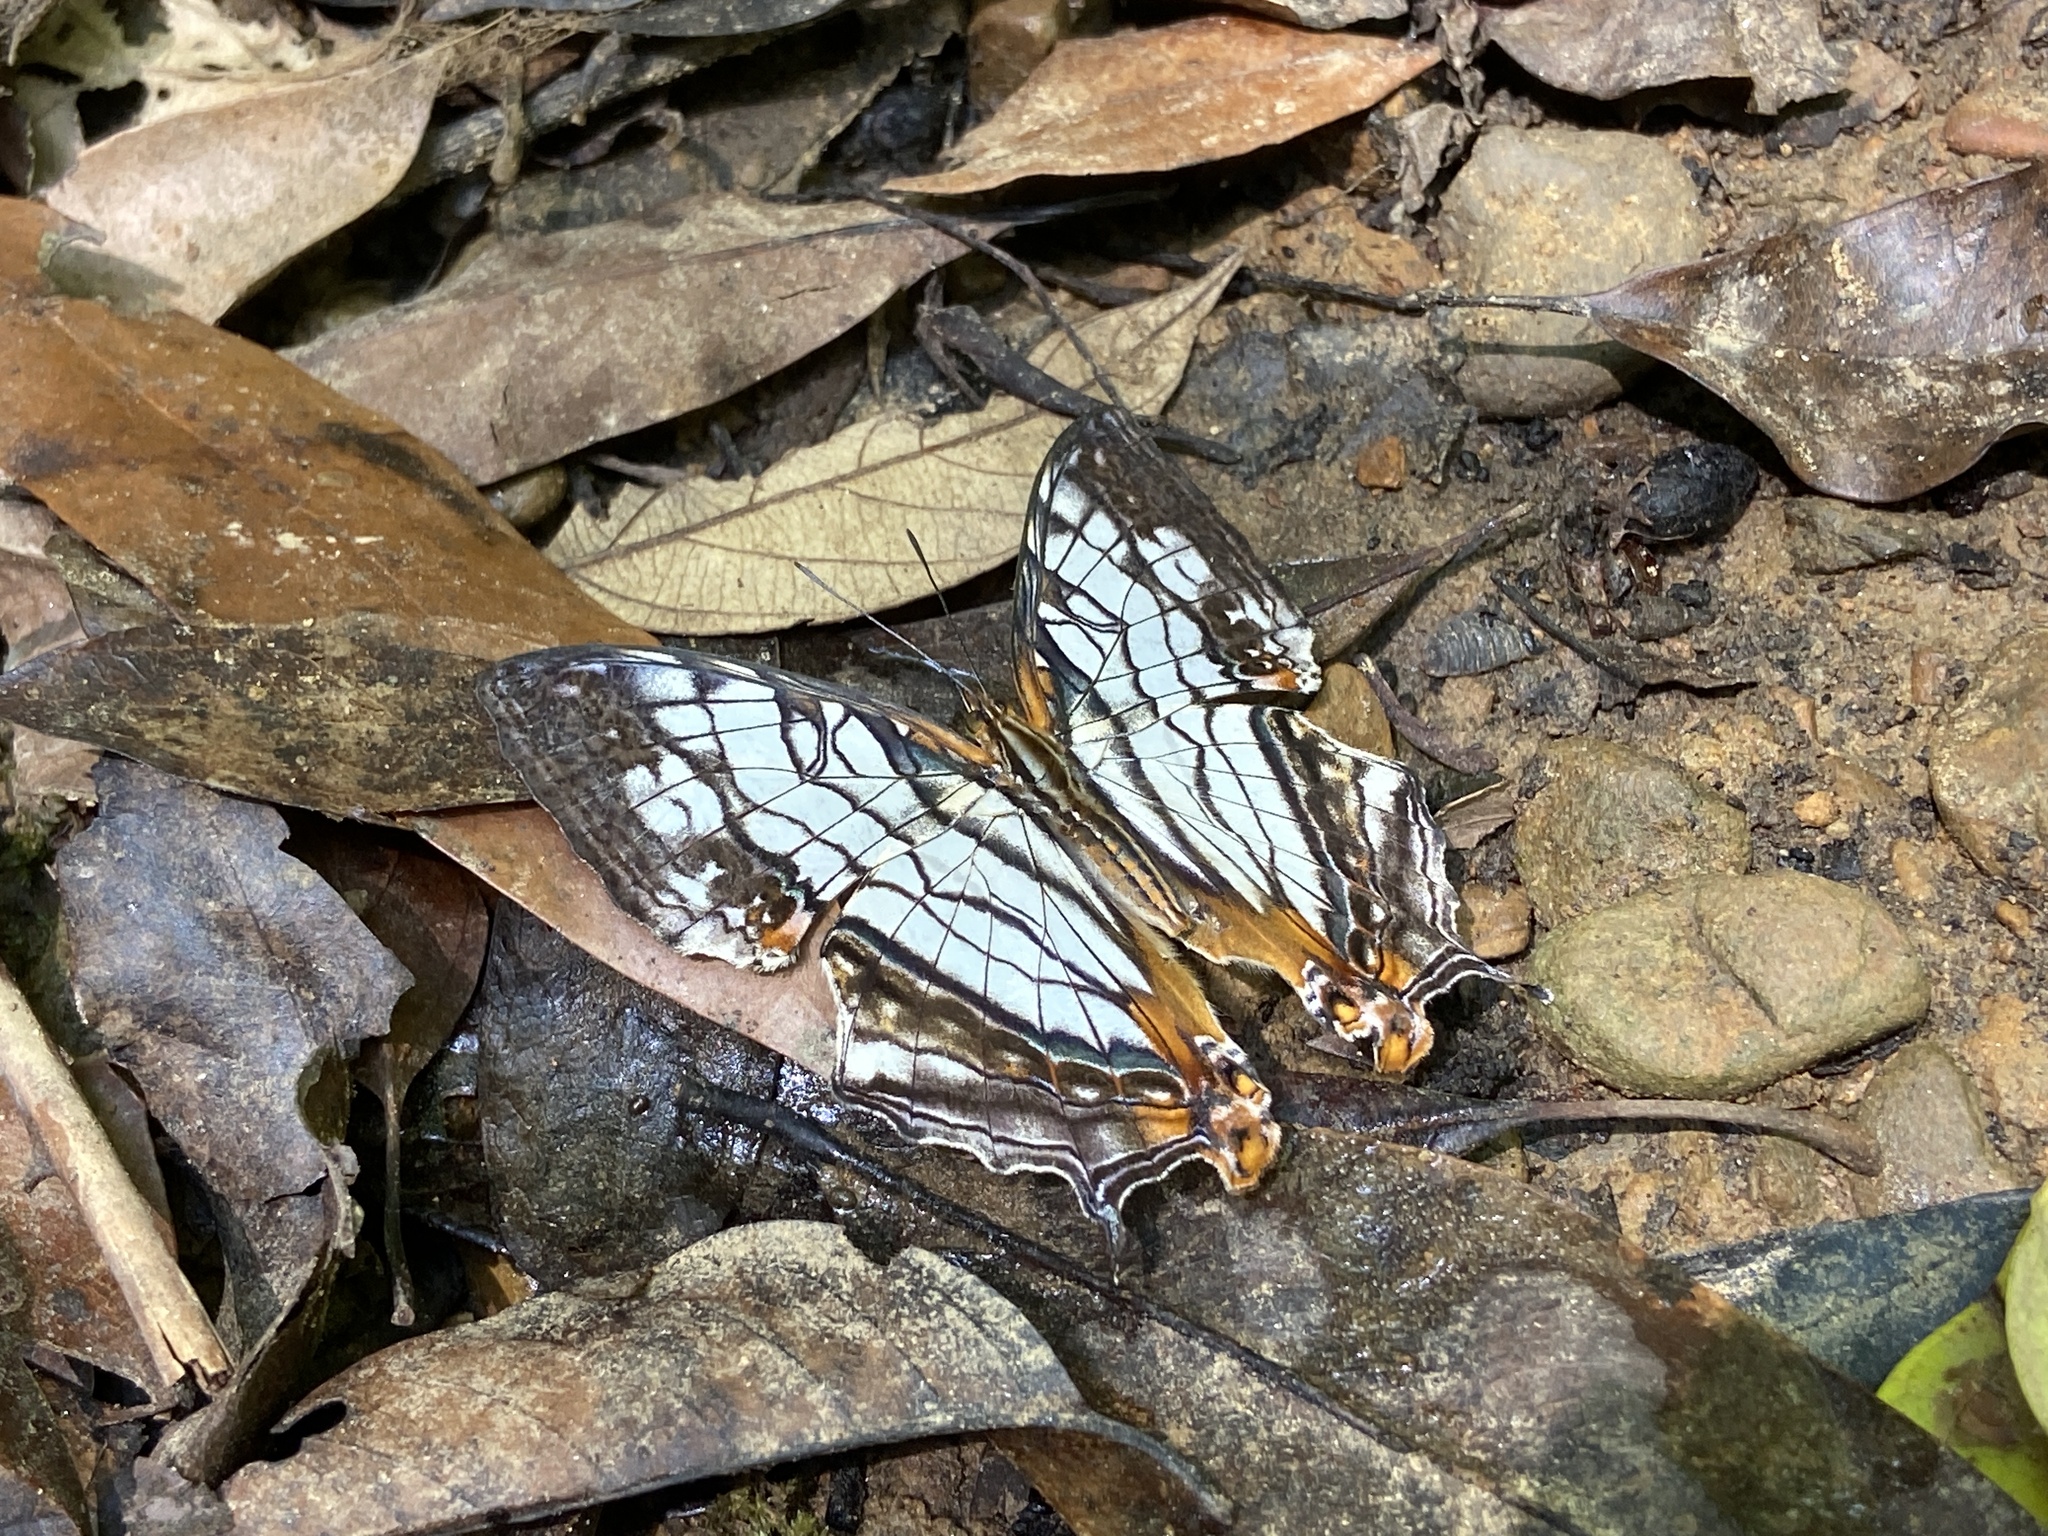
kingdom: Animalia
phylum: Arthropoda
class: Insecta
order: Lepidoptera
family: Nymphalidae
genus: Cyrestis
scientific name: Cyrestis thyodamas
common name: Common mapwing
